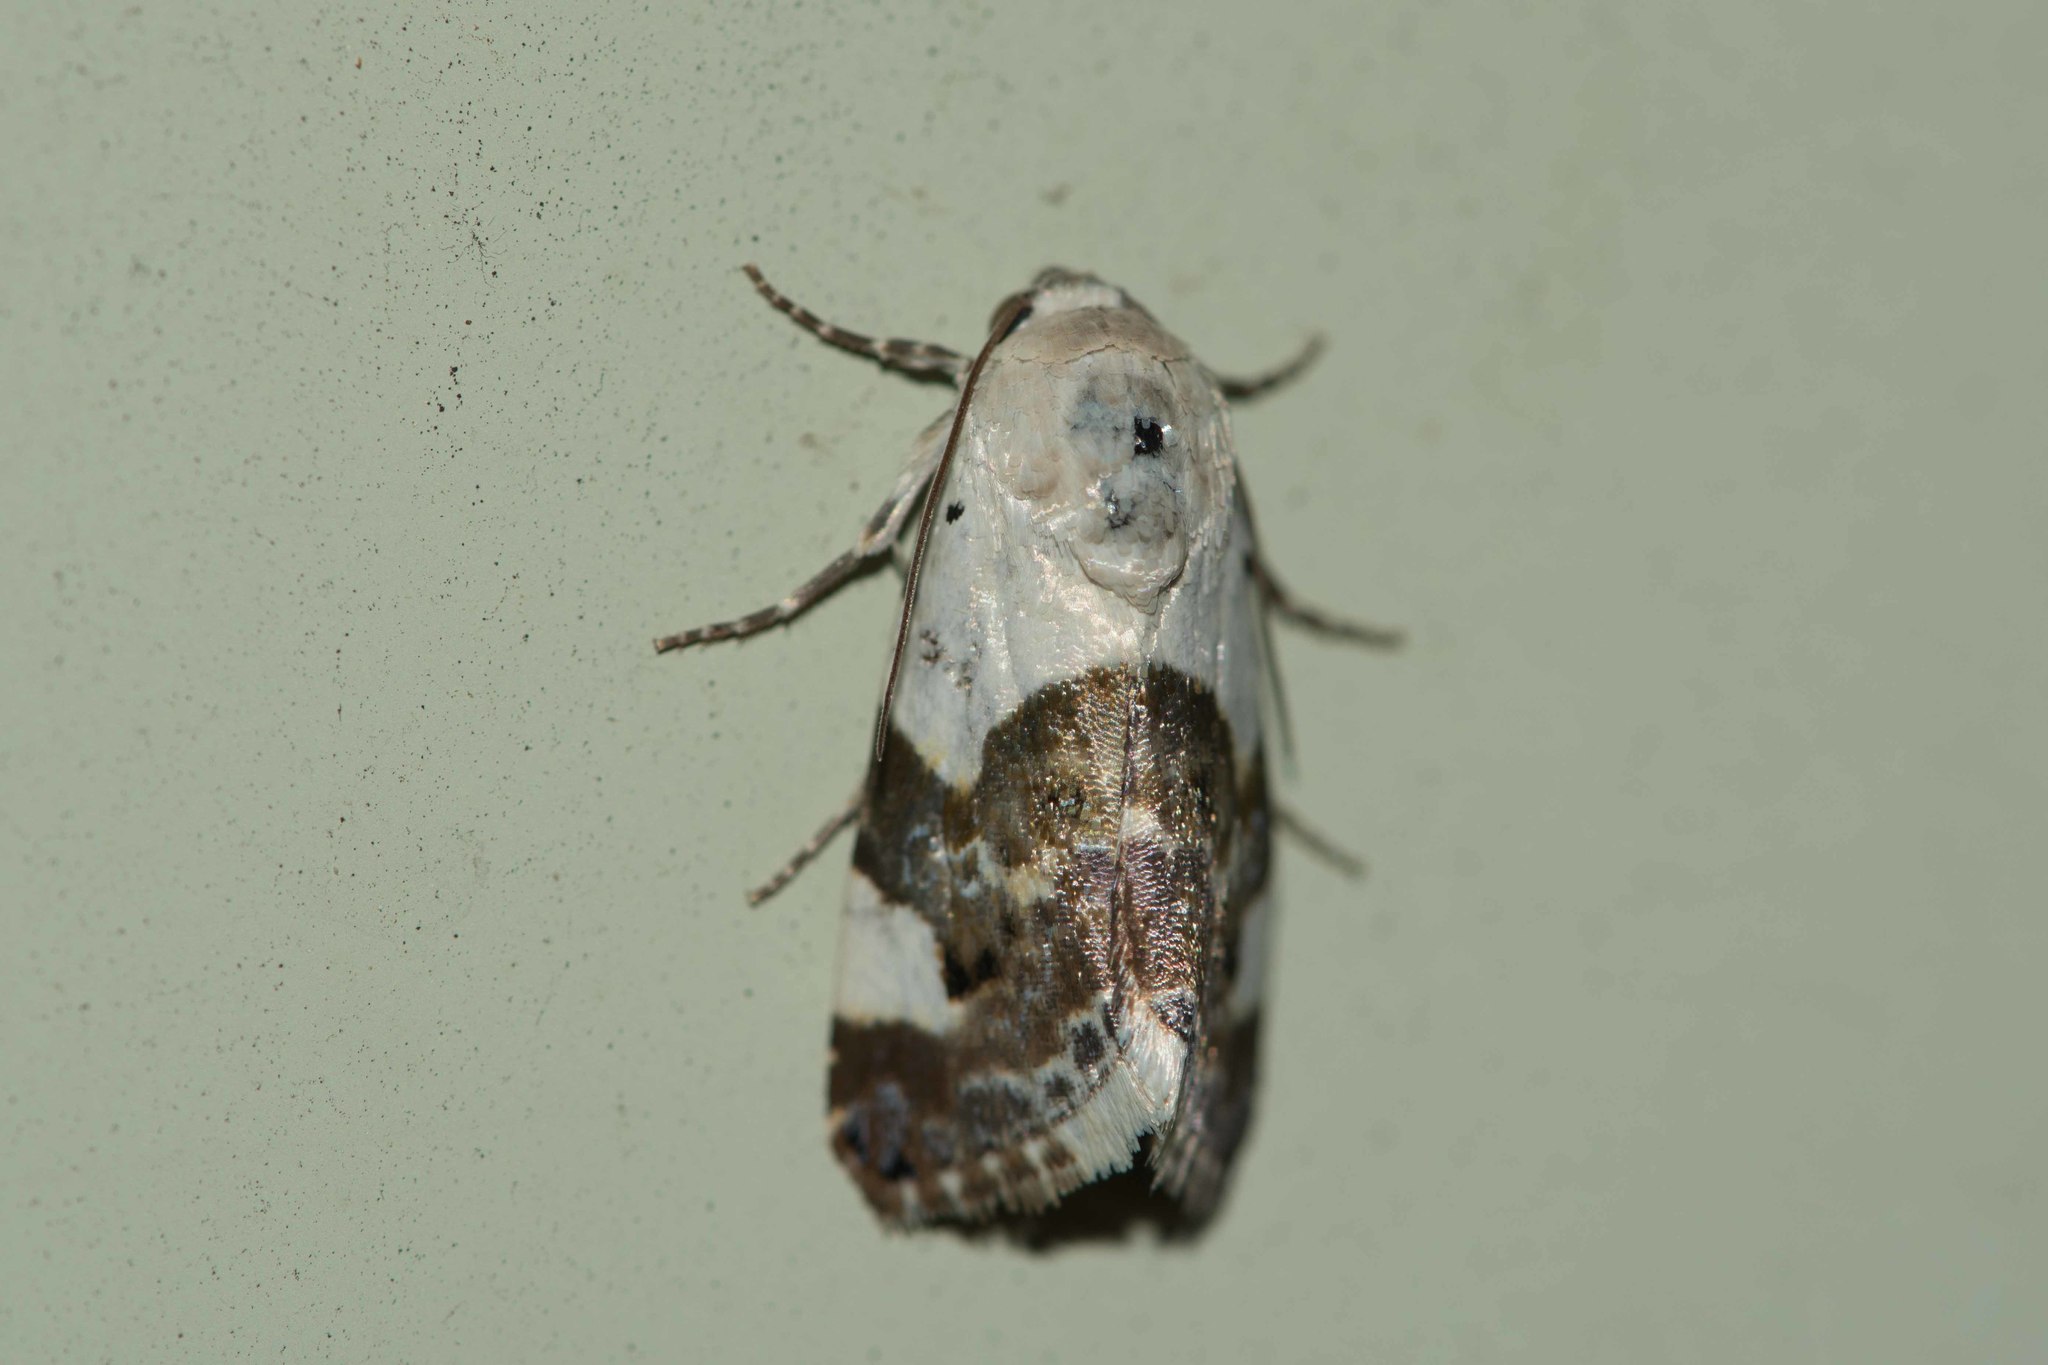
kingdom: Animalia
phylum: Arthropoda
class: Insecta
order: Lepidoptera
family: Noctuidae
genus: Acontia
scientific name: Acontia lucida
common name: Pale shoulder
